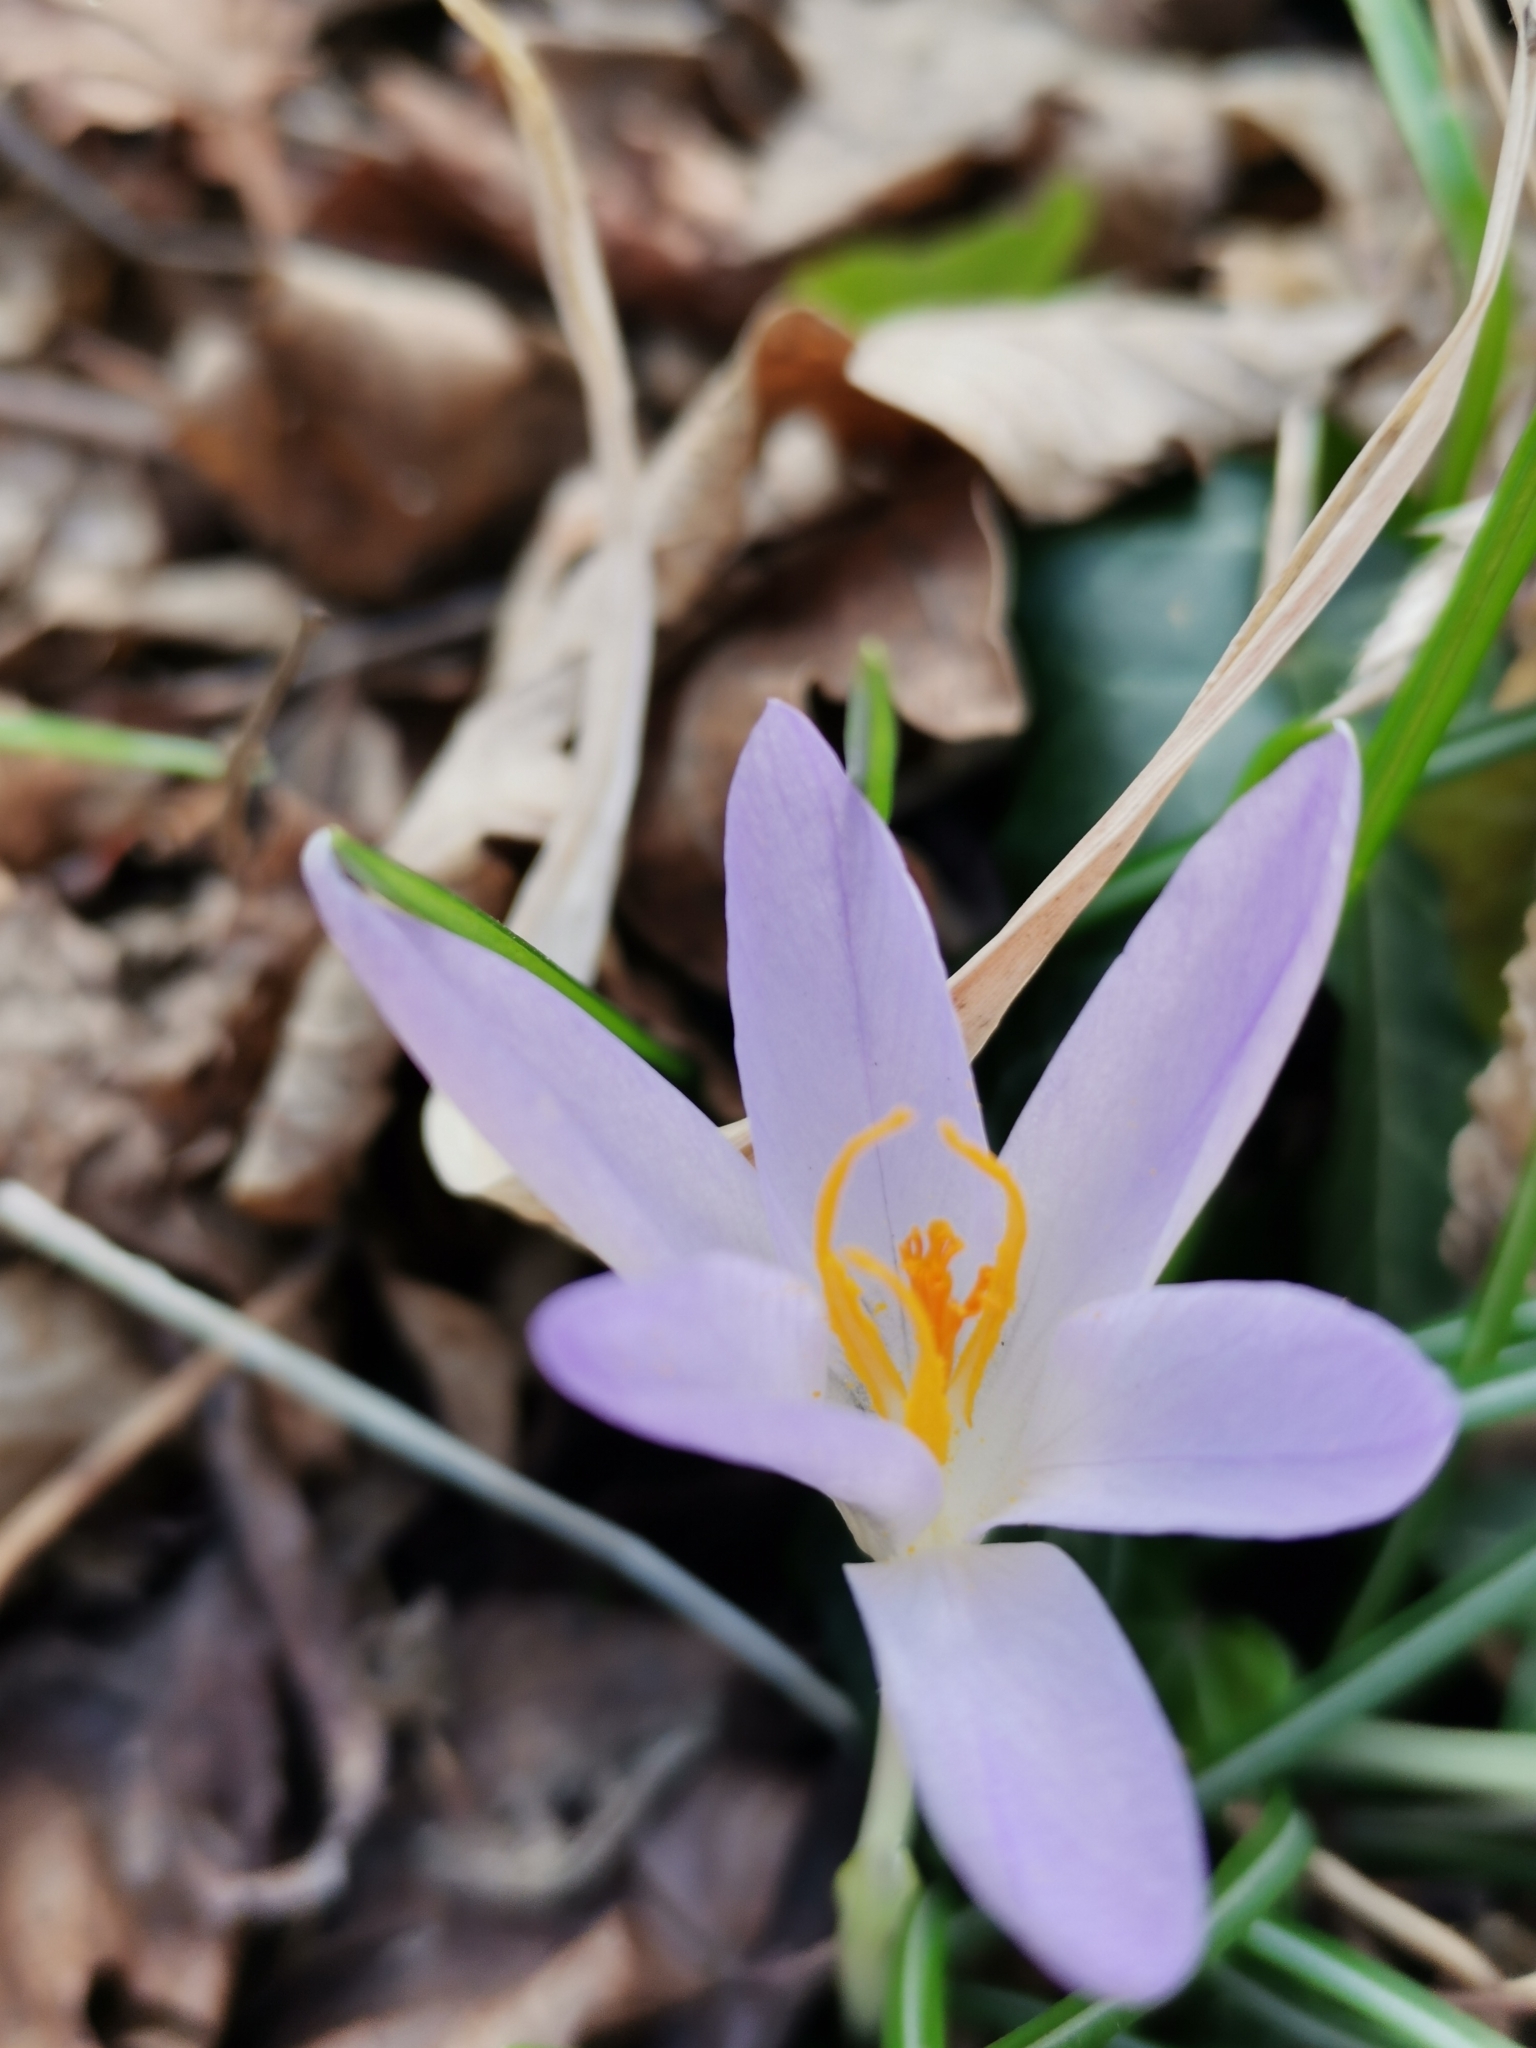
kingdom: Plantae
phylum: Tracheophyta
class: Liliopsida
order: Asparagales
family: Iridaceae
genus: Crocus
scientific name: Crocus tommasinianus
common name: Early crocus
